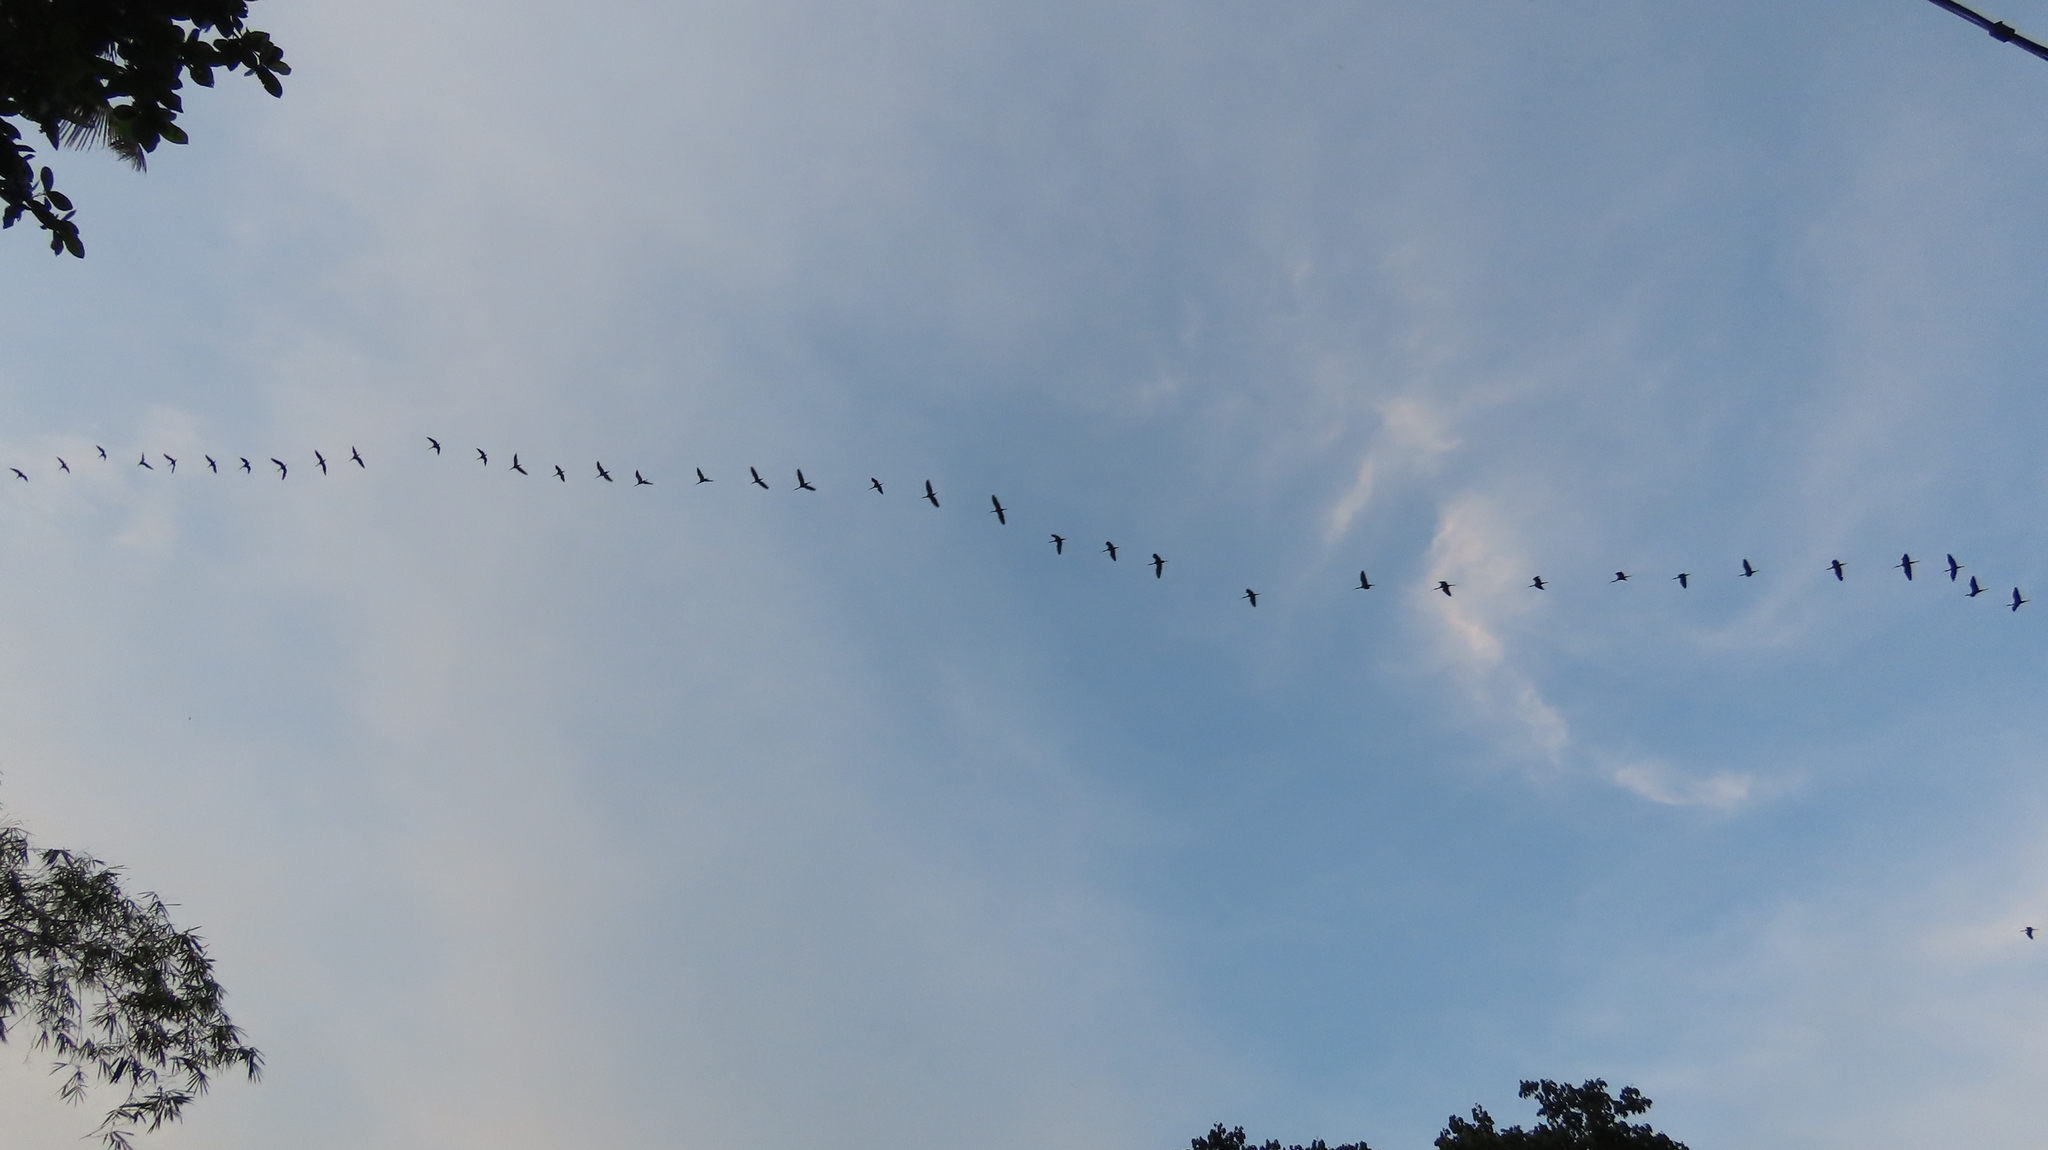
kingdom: Animalia
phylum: Chordata
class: Aves
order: Pelecaniformes
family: Threskiornithidae
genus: Plegadis
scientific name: Plegadis falcinellus
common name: Glossy ibis
